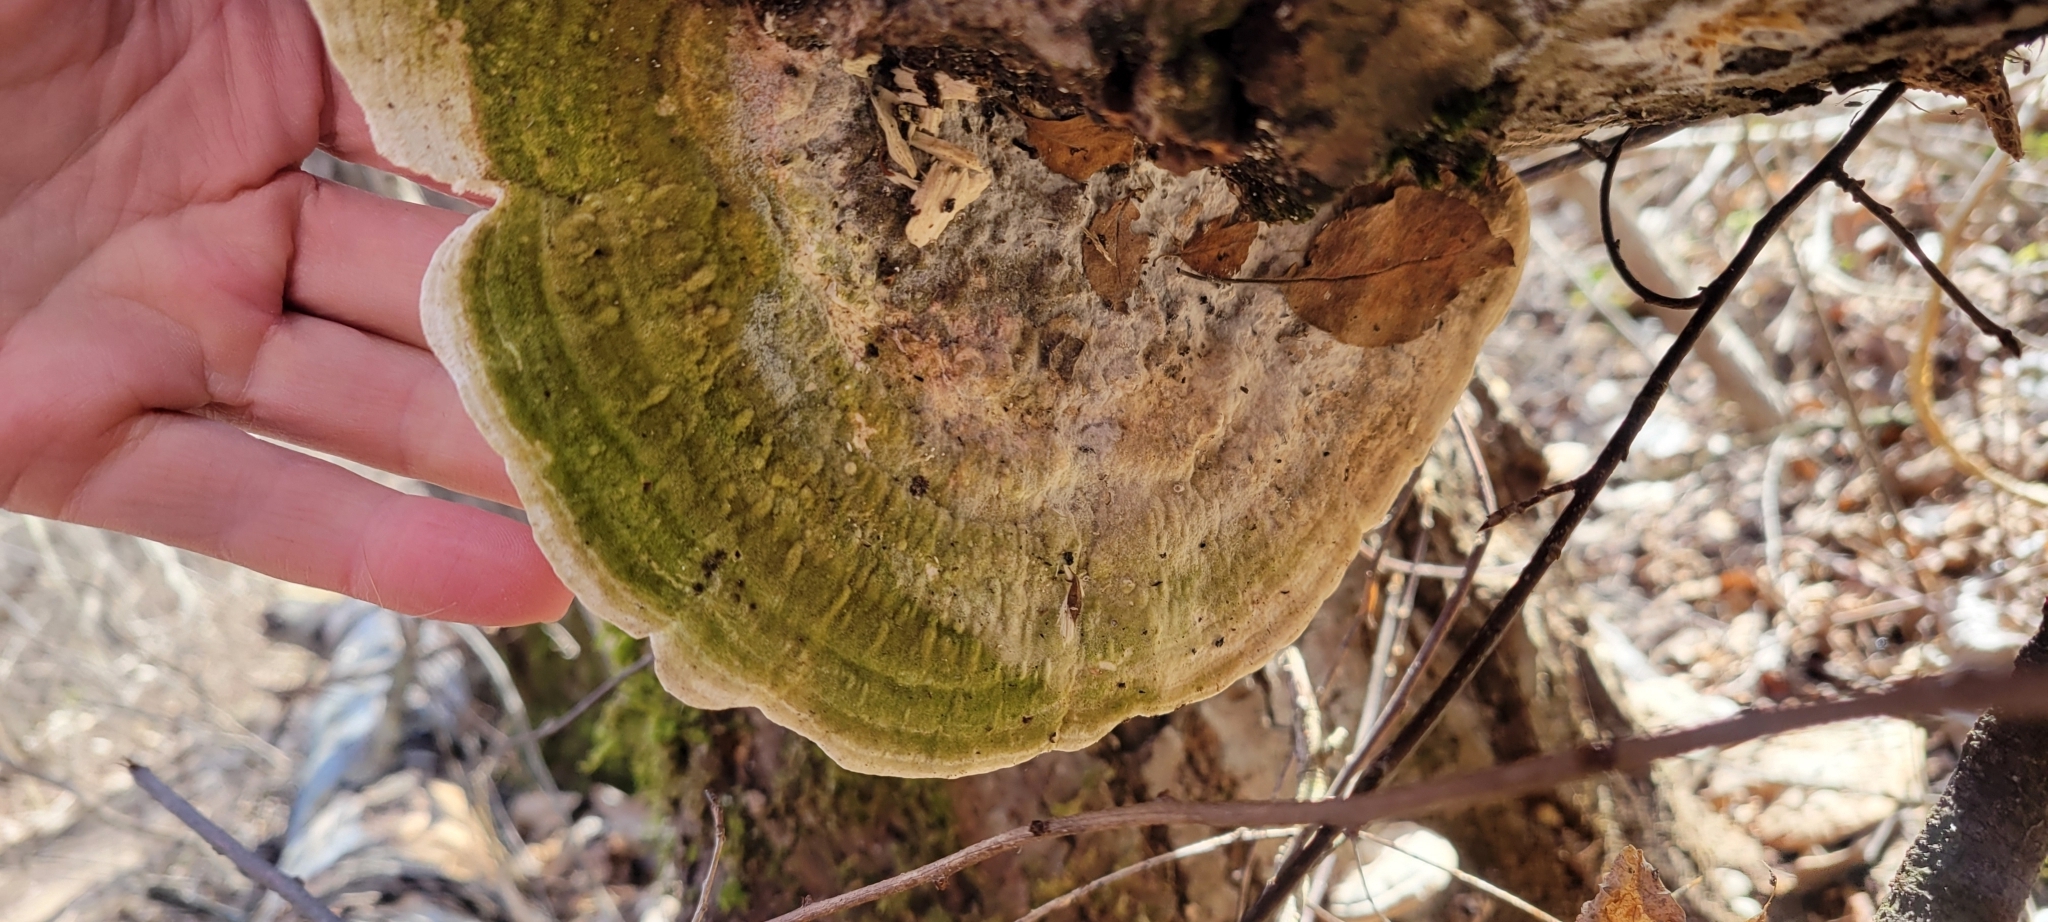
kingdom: Fungi
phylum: Basidiomycota
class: Agaricomycetes
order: Polyporales
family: Polyporaceae
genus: Trametes
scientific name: Trametes gibbosa
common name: Lumpy bracket
